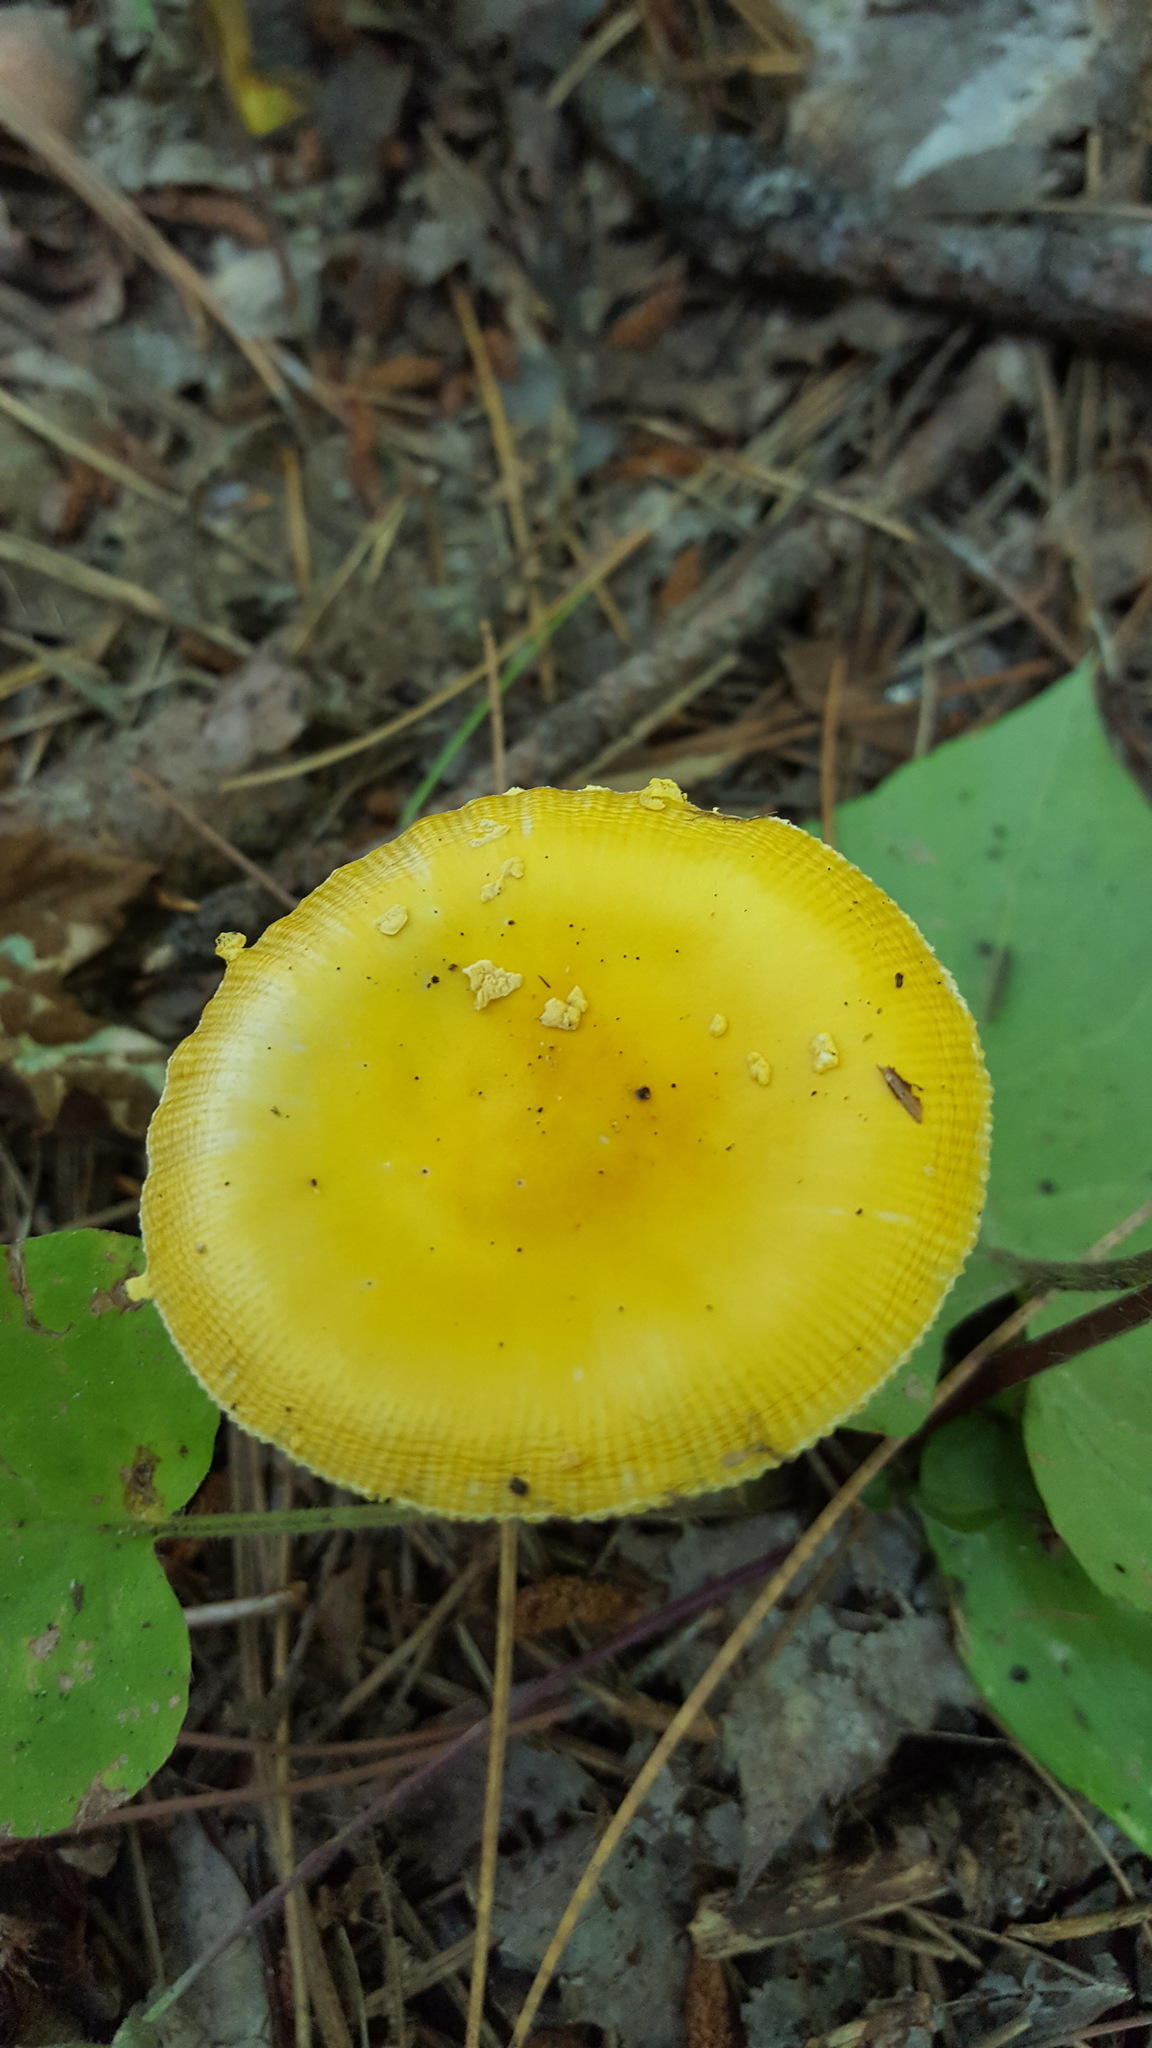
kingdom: Fungi
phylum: Basidiomycota
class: Agaricomycetes
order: Agaricales
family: Amanitaceae
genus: Amanita
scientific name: Amanita frostiana
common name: Frost's amanita
